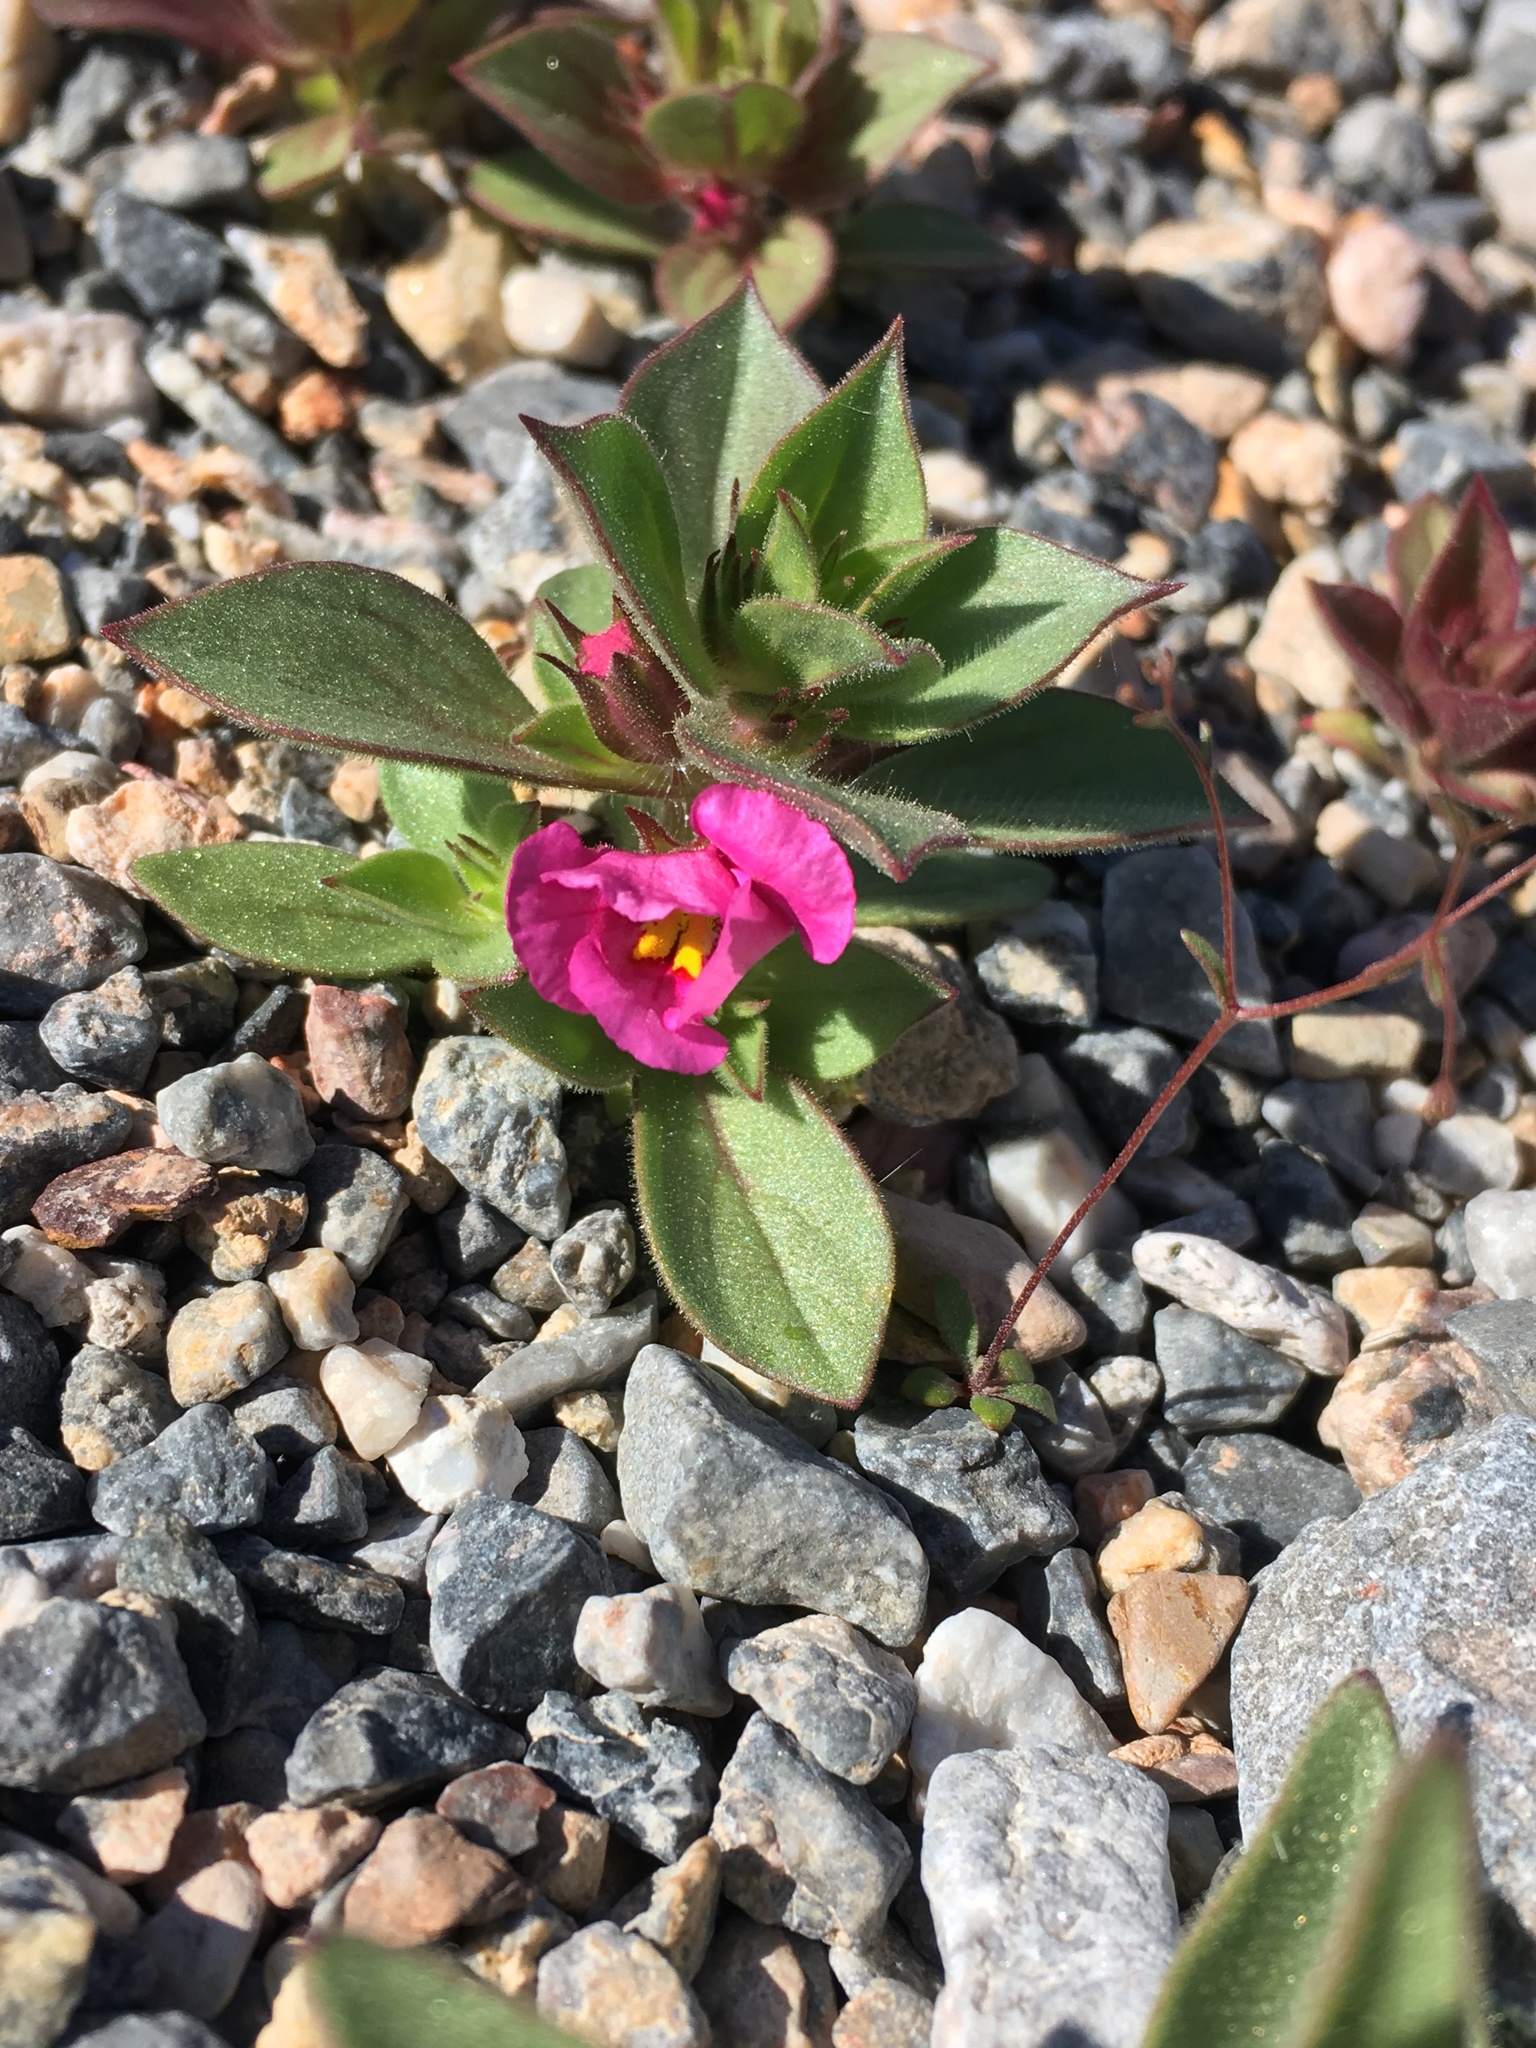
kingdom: Plantae
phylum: Tracheophyta
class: Magnoliopsida
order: Lamiales
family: Phrymaceae
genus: Diplacus
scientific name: Diplacus bigelovii
